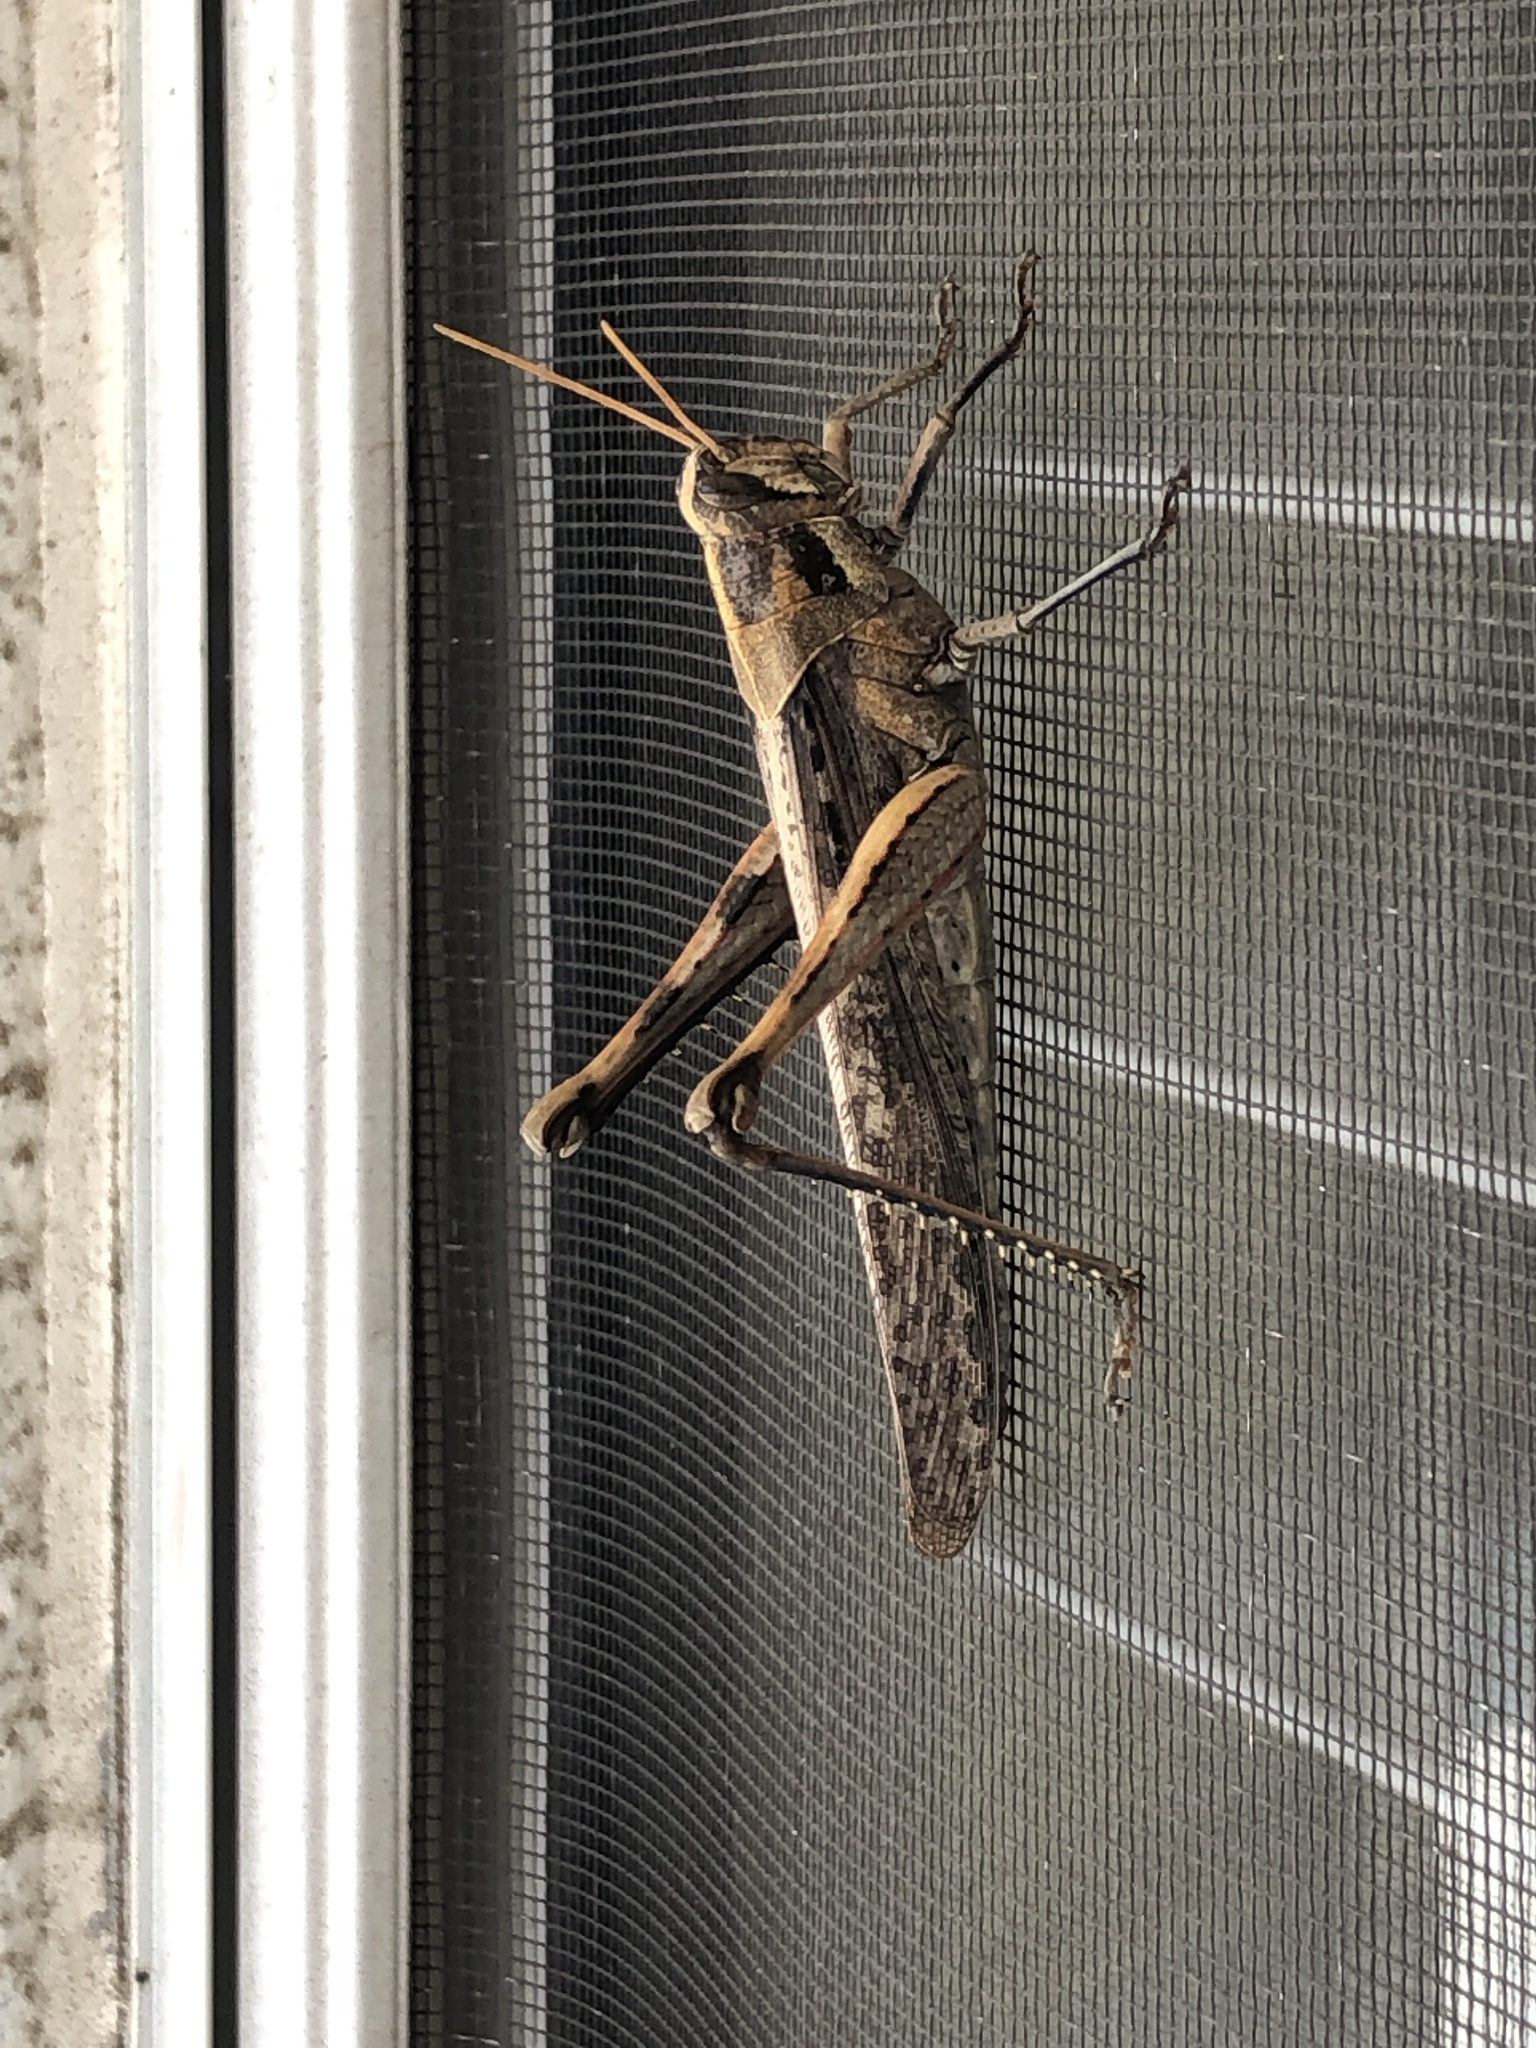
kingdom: Animalia
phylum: Arthropoda
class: Insecta
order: Orthoptera
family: Acrididae
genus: Schistocerca
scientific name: Schistocerca nitens
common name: Vagrant grasshopper
